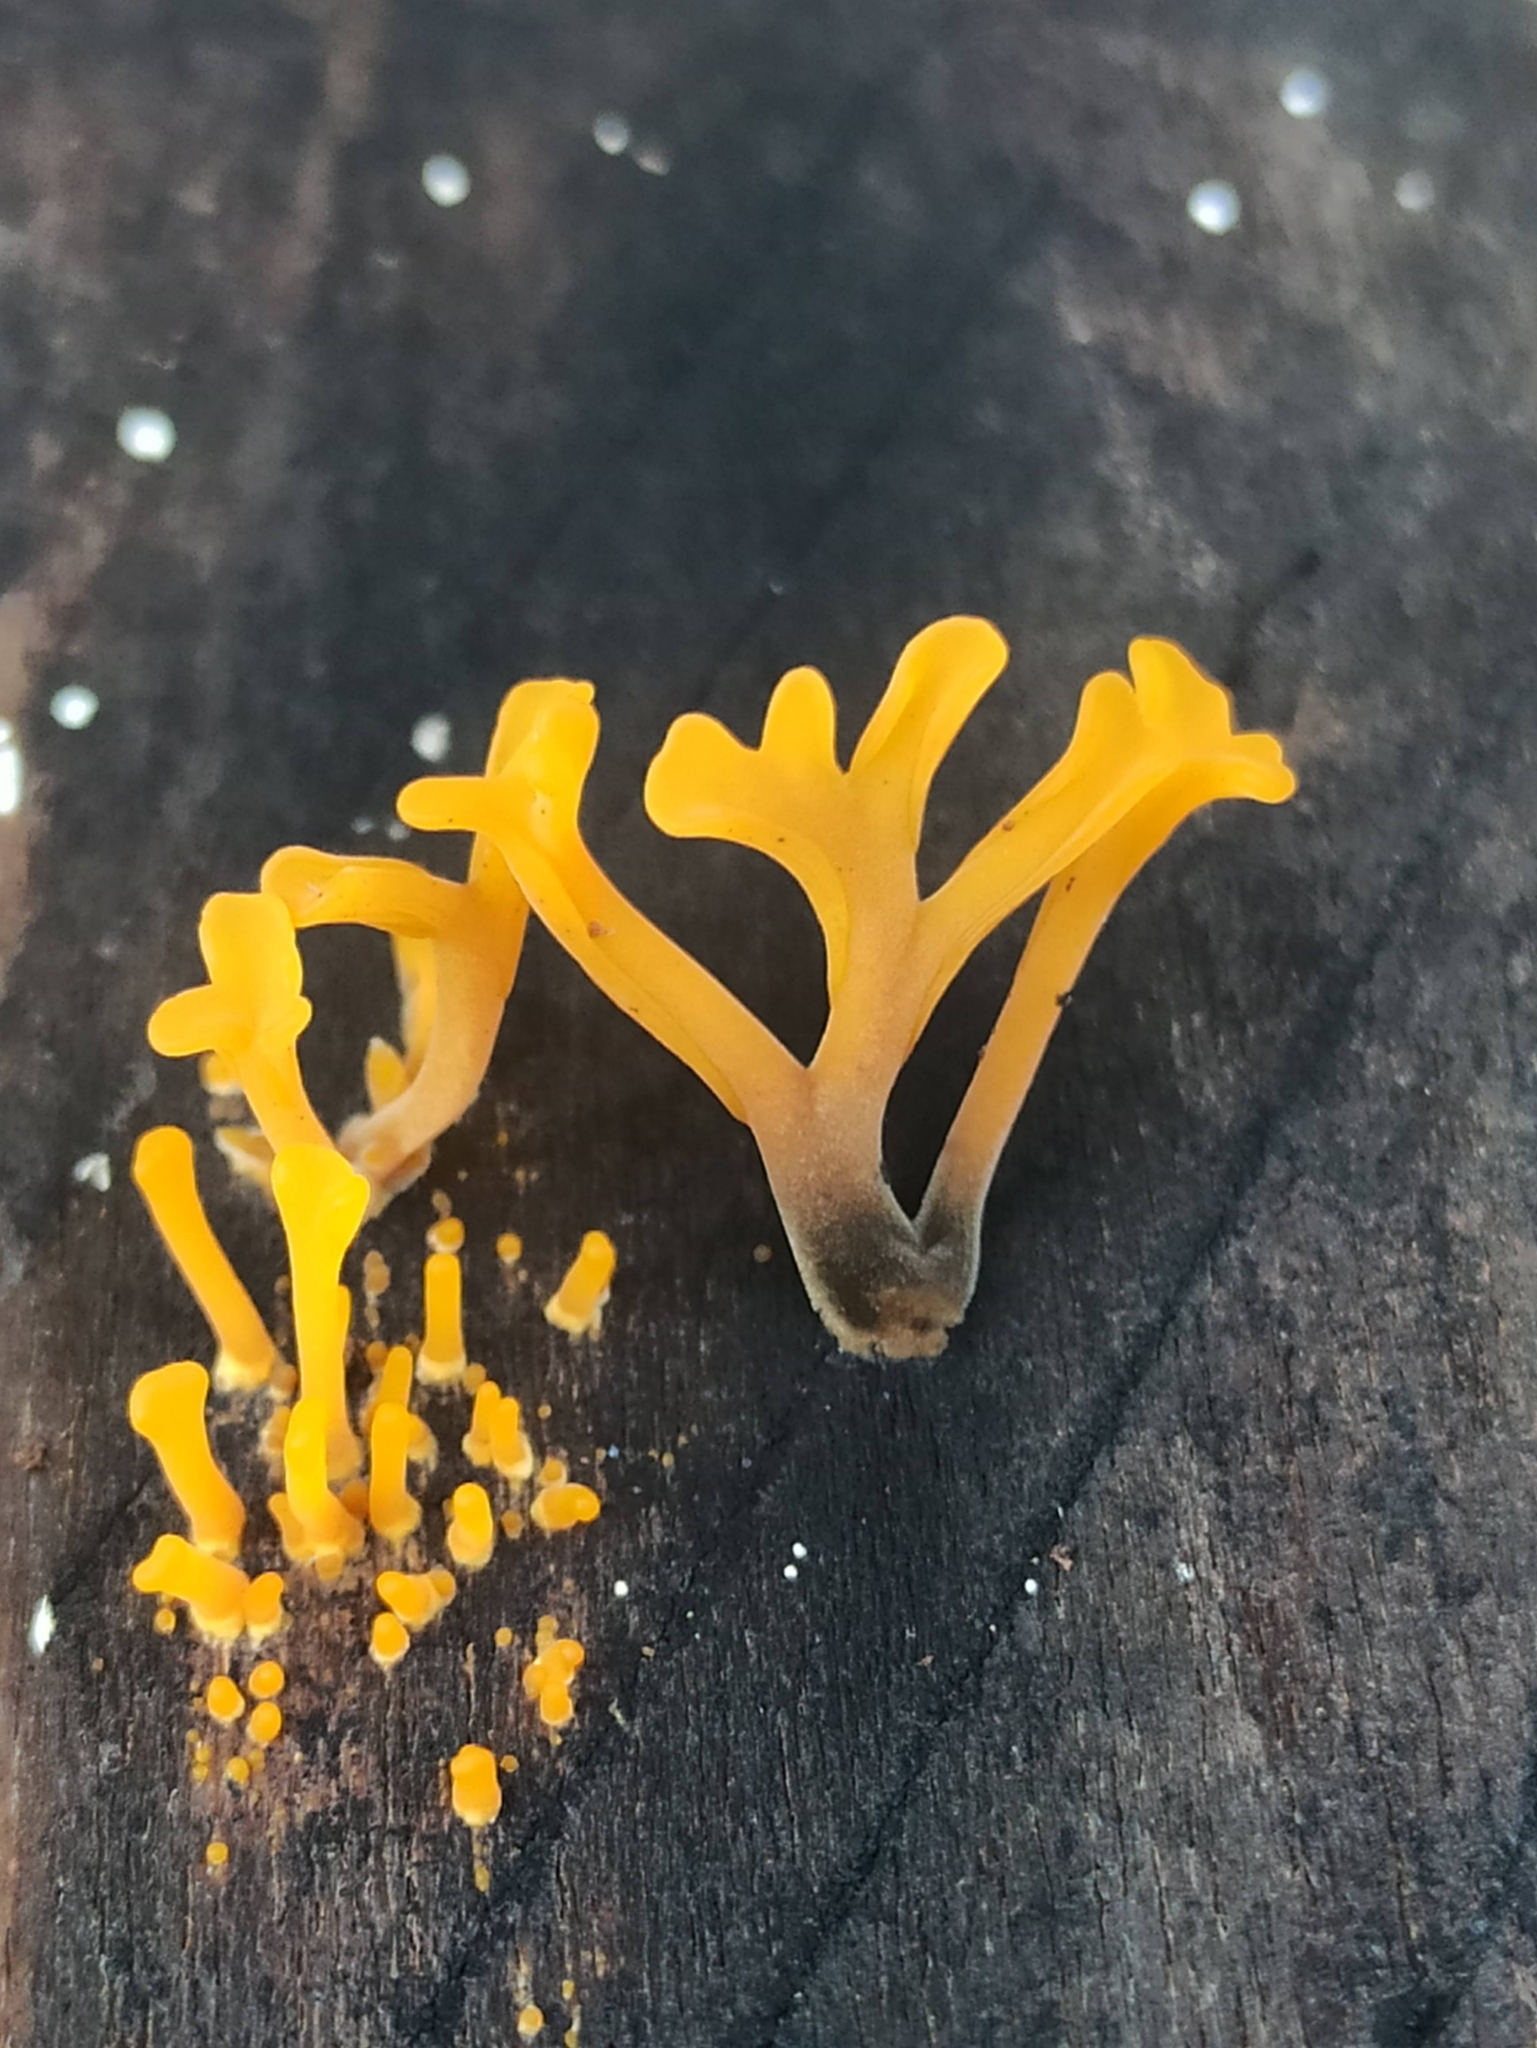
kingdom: Fungi
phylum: Basidiomycota
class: Dacrymycetes
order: Dacrymycetales
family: Dacrymycetaceae
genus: Dacrymyces
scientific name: Dacrymyces spathularius
